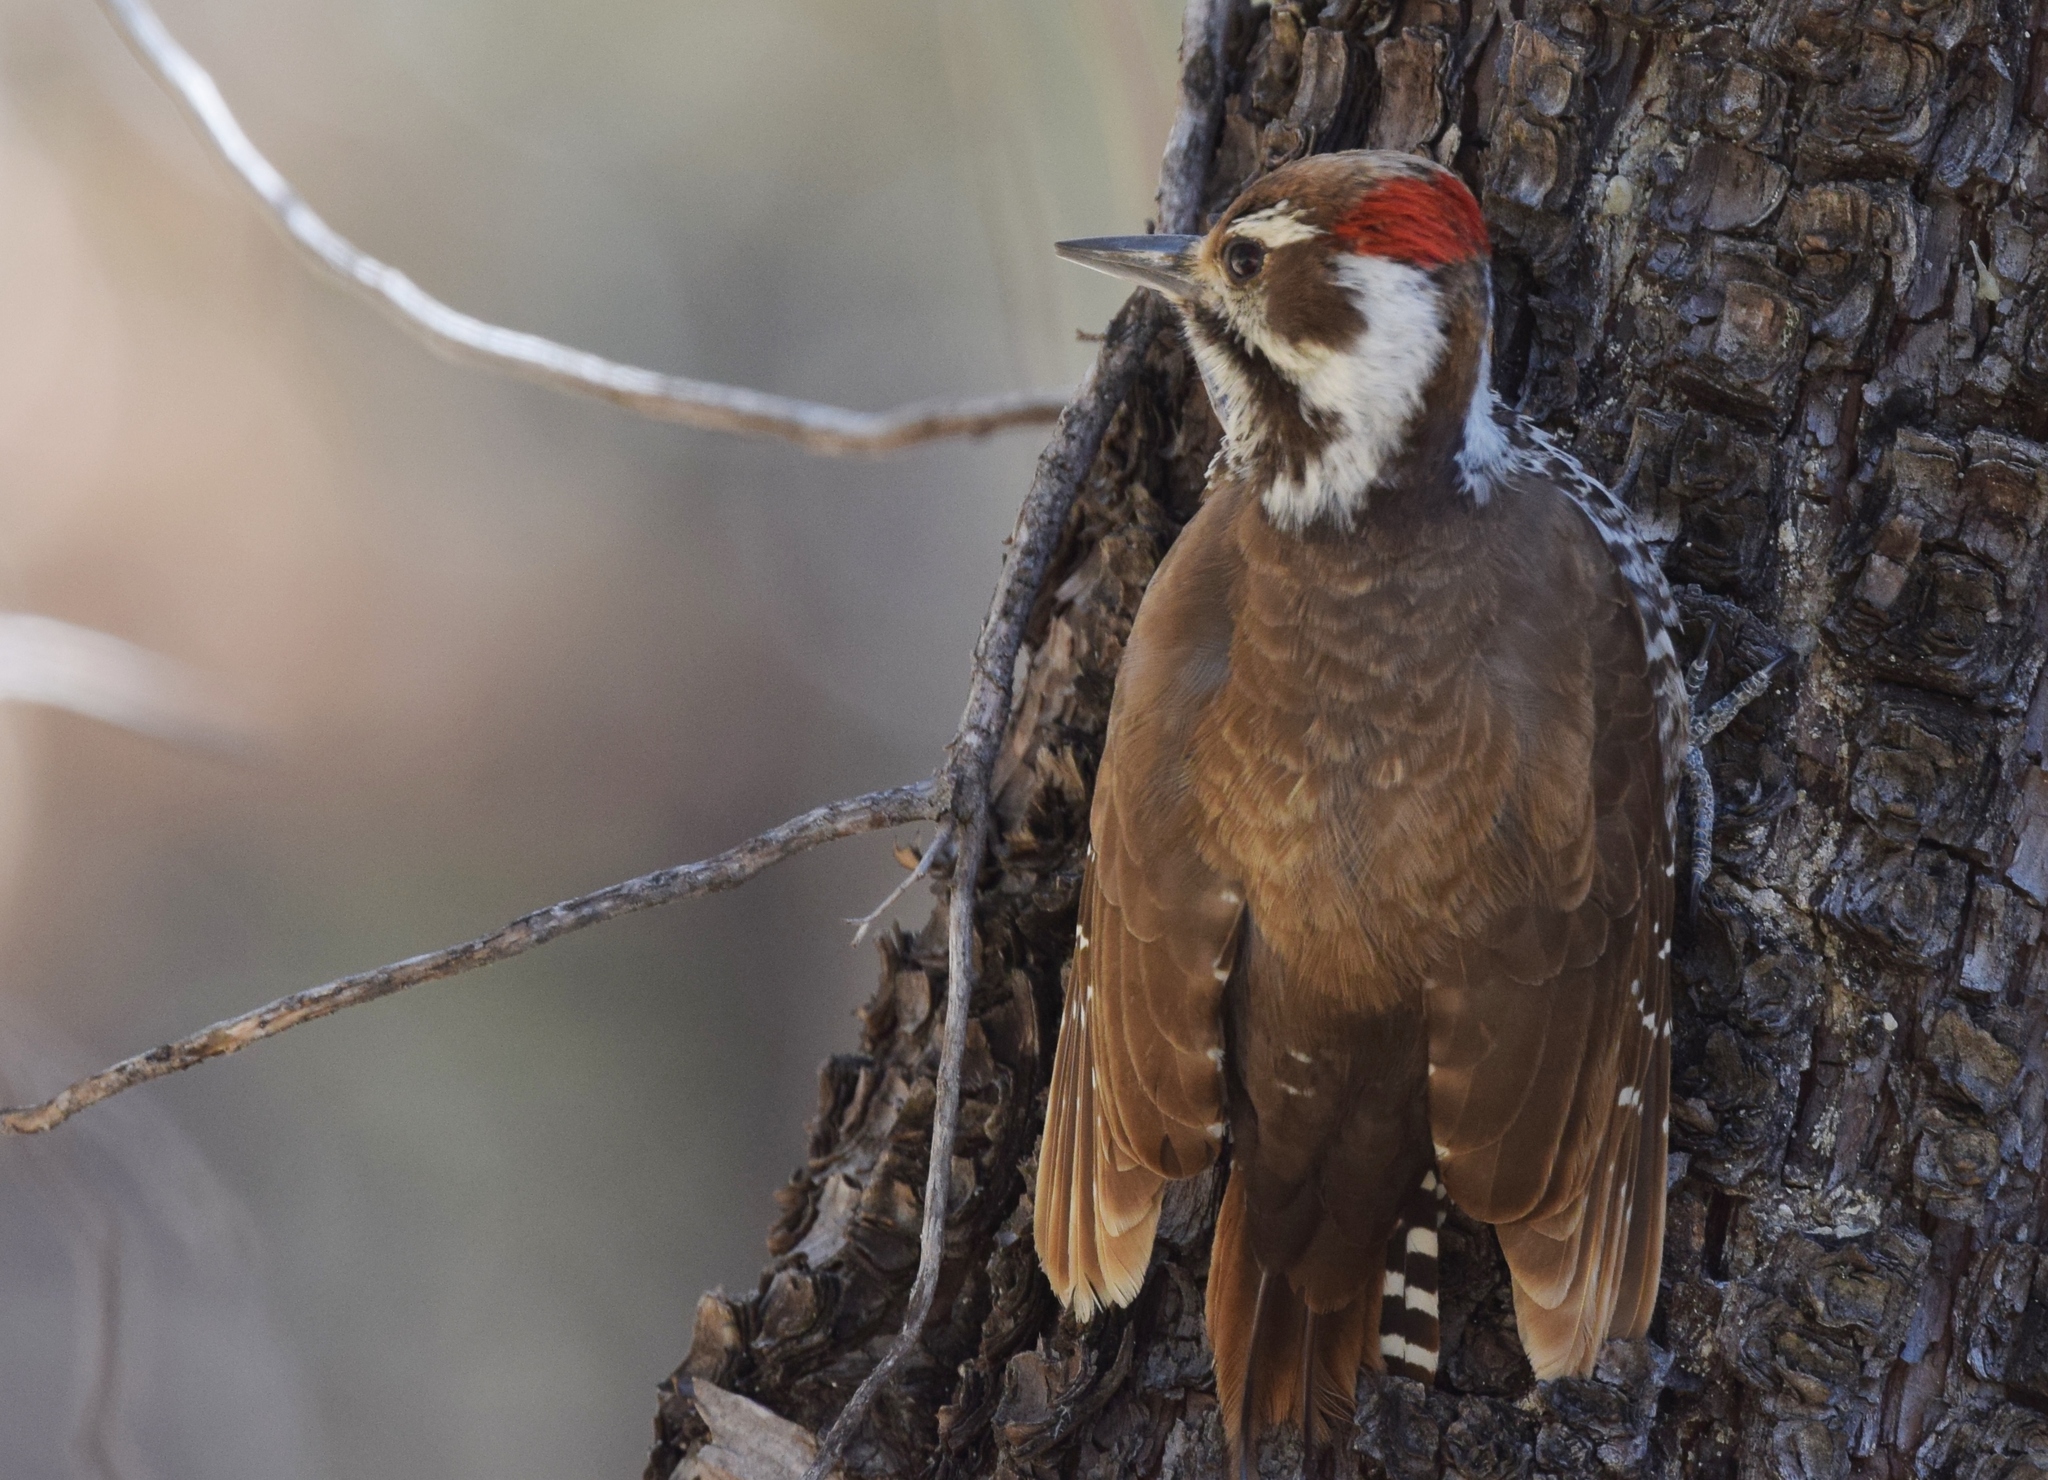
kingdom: Animalia
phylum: Chordata
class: Aves
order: Piciformes
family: Picidae
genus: Leuconotopicus
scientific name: Leuconotopicus arizonae
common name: Arizona woodpecker
